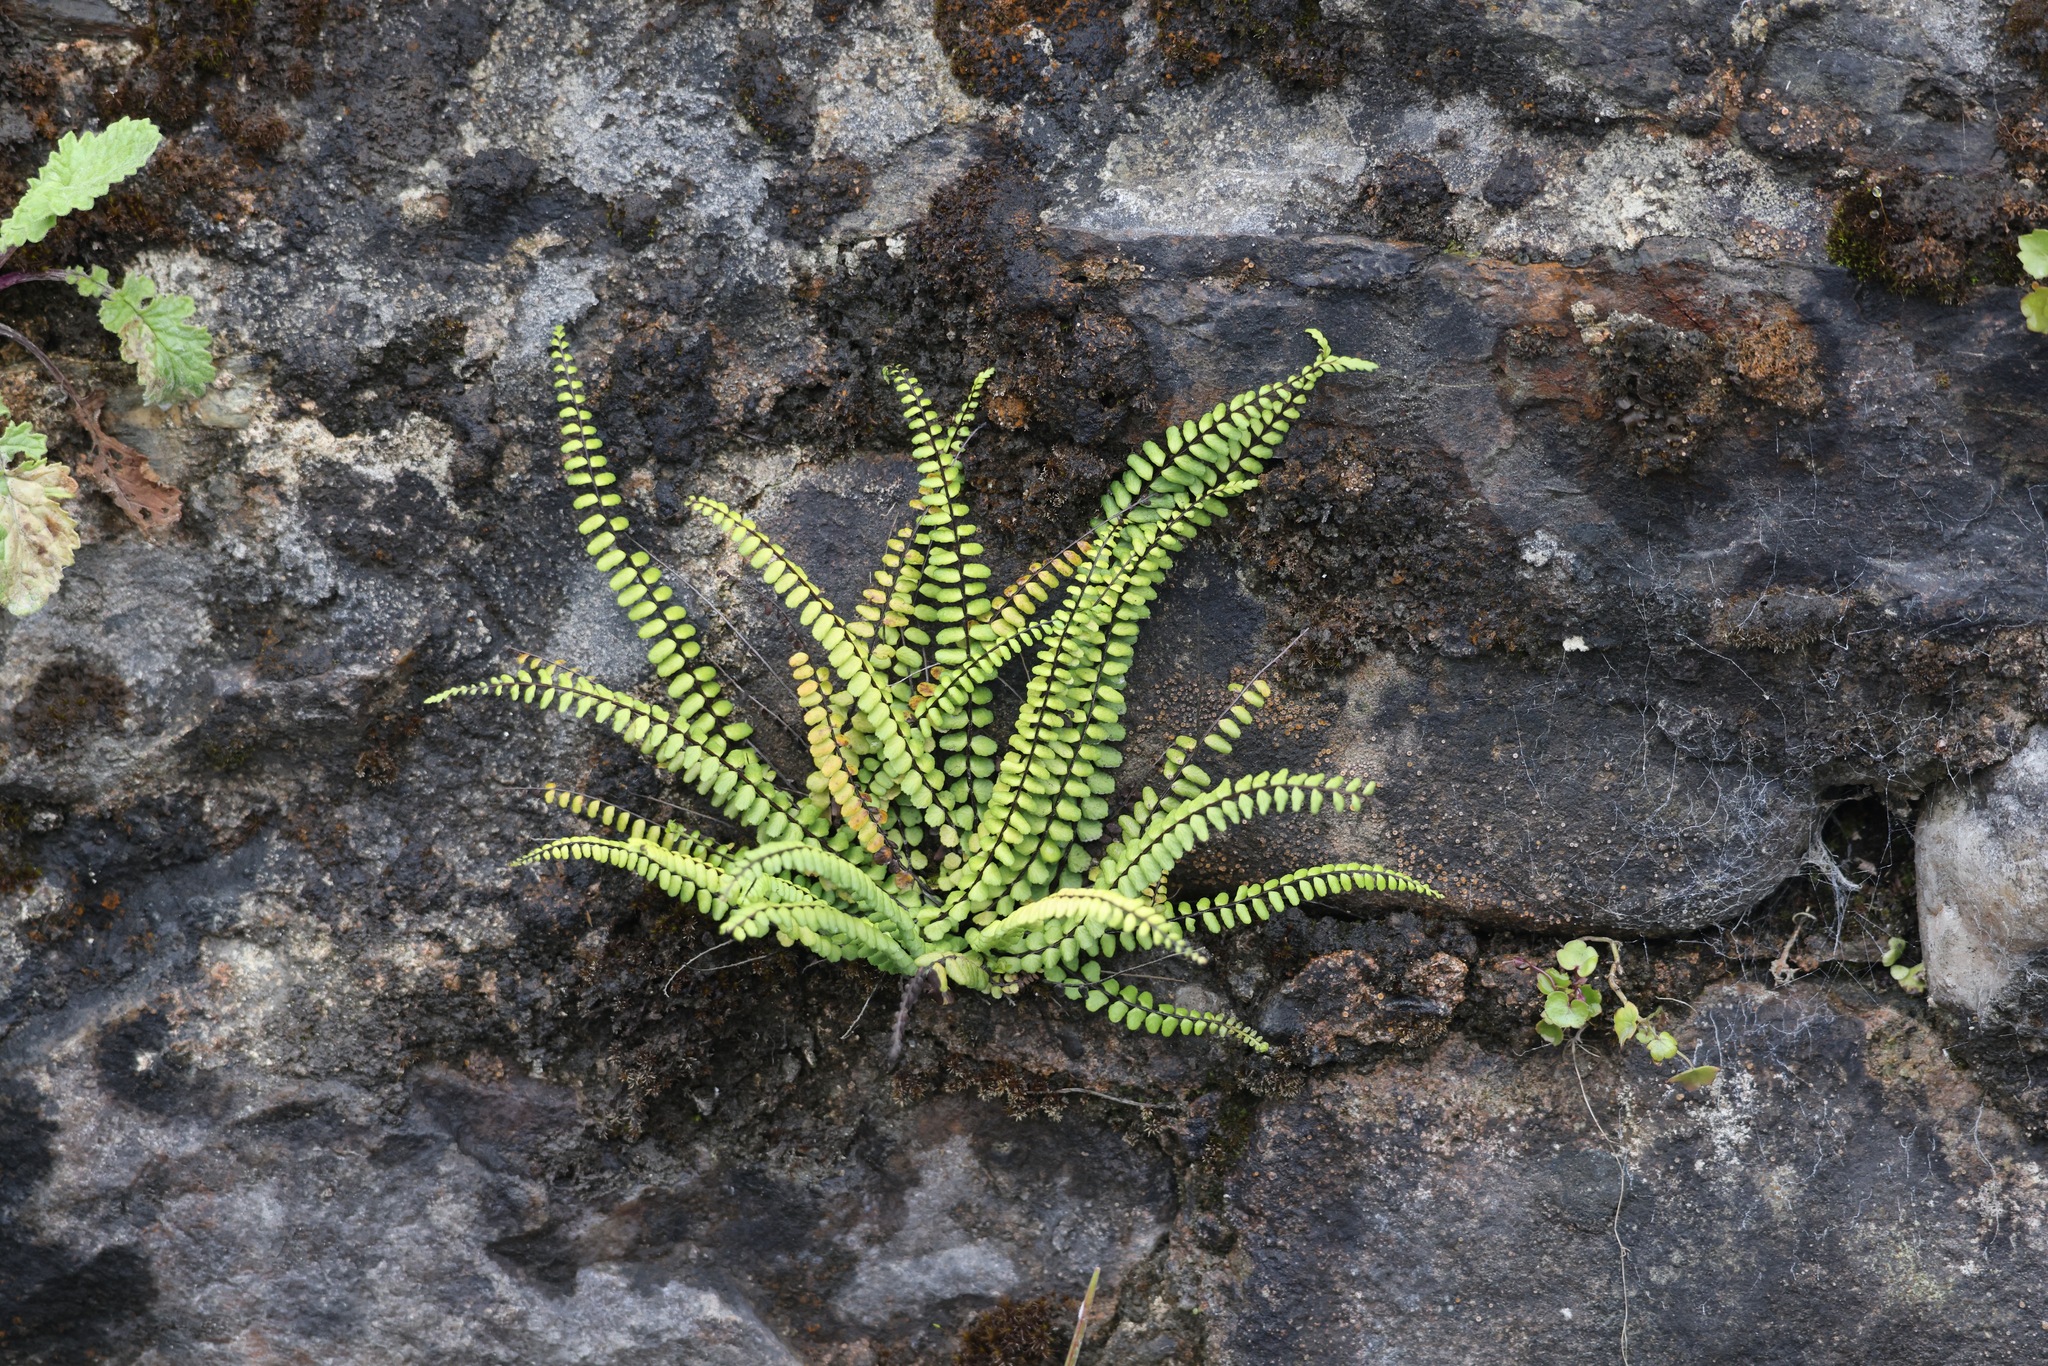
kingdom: Plantae
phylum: Tracheophyta
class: Polypodiopsida
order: Polypodiales
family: Aspleniaceae
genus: Asplenium
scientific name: Asplenium trichomanes
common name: Maidenhair spleenwort
